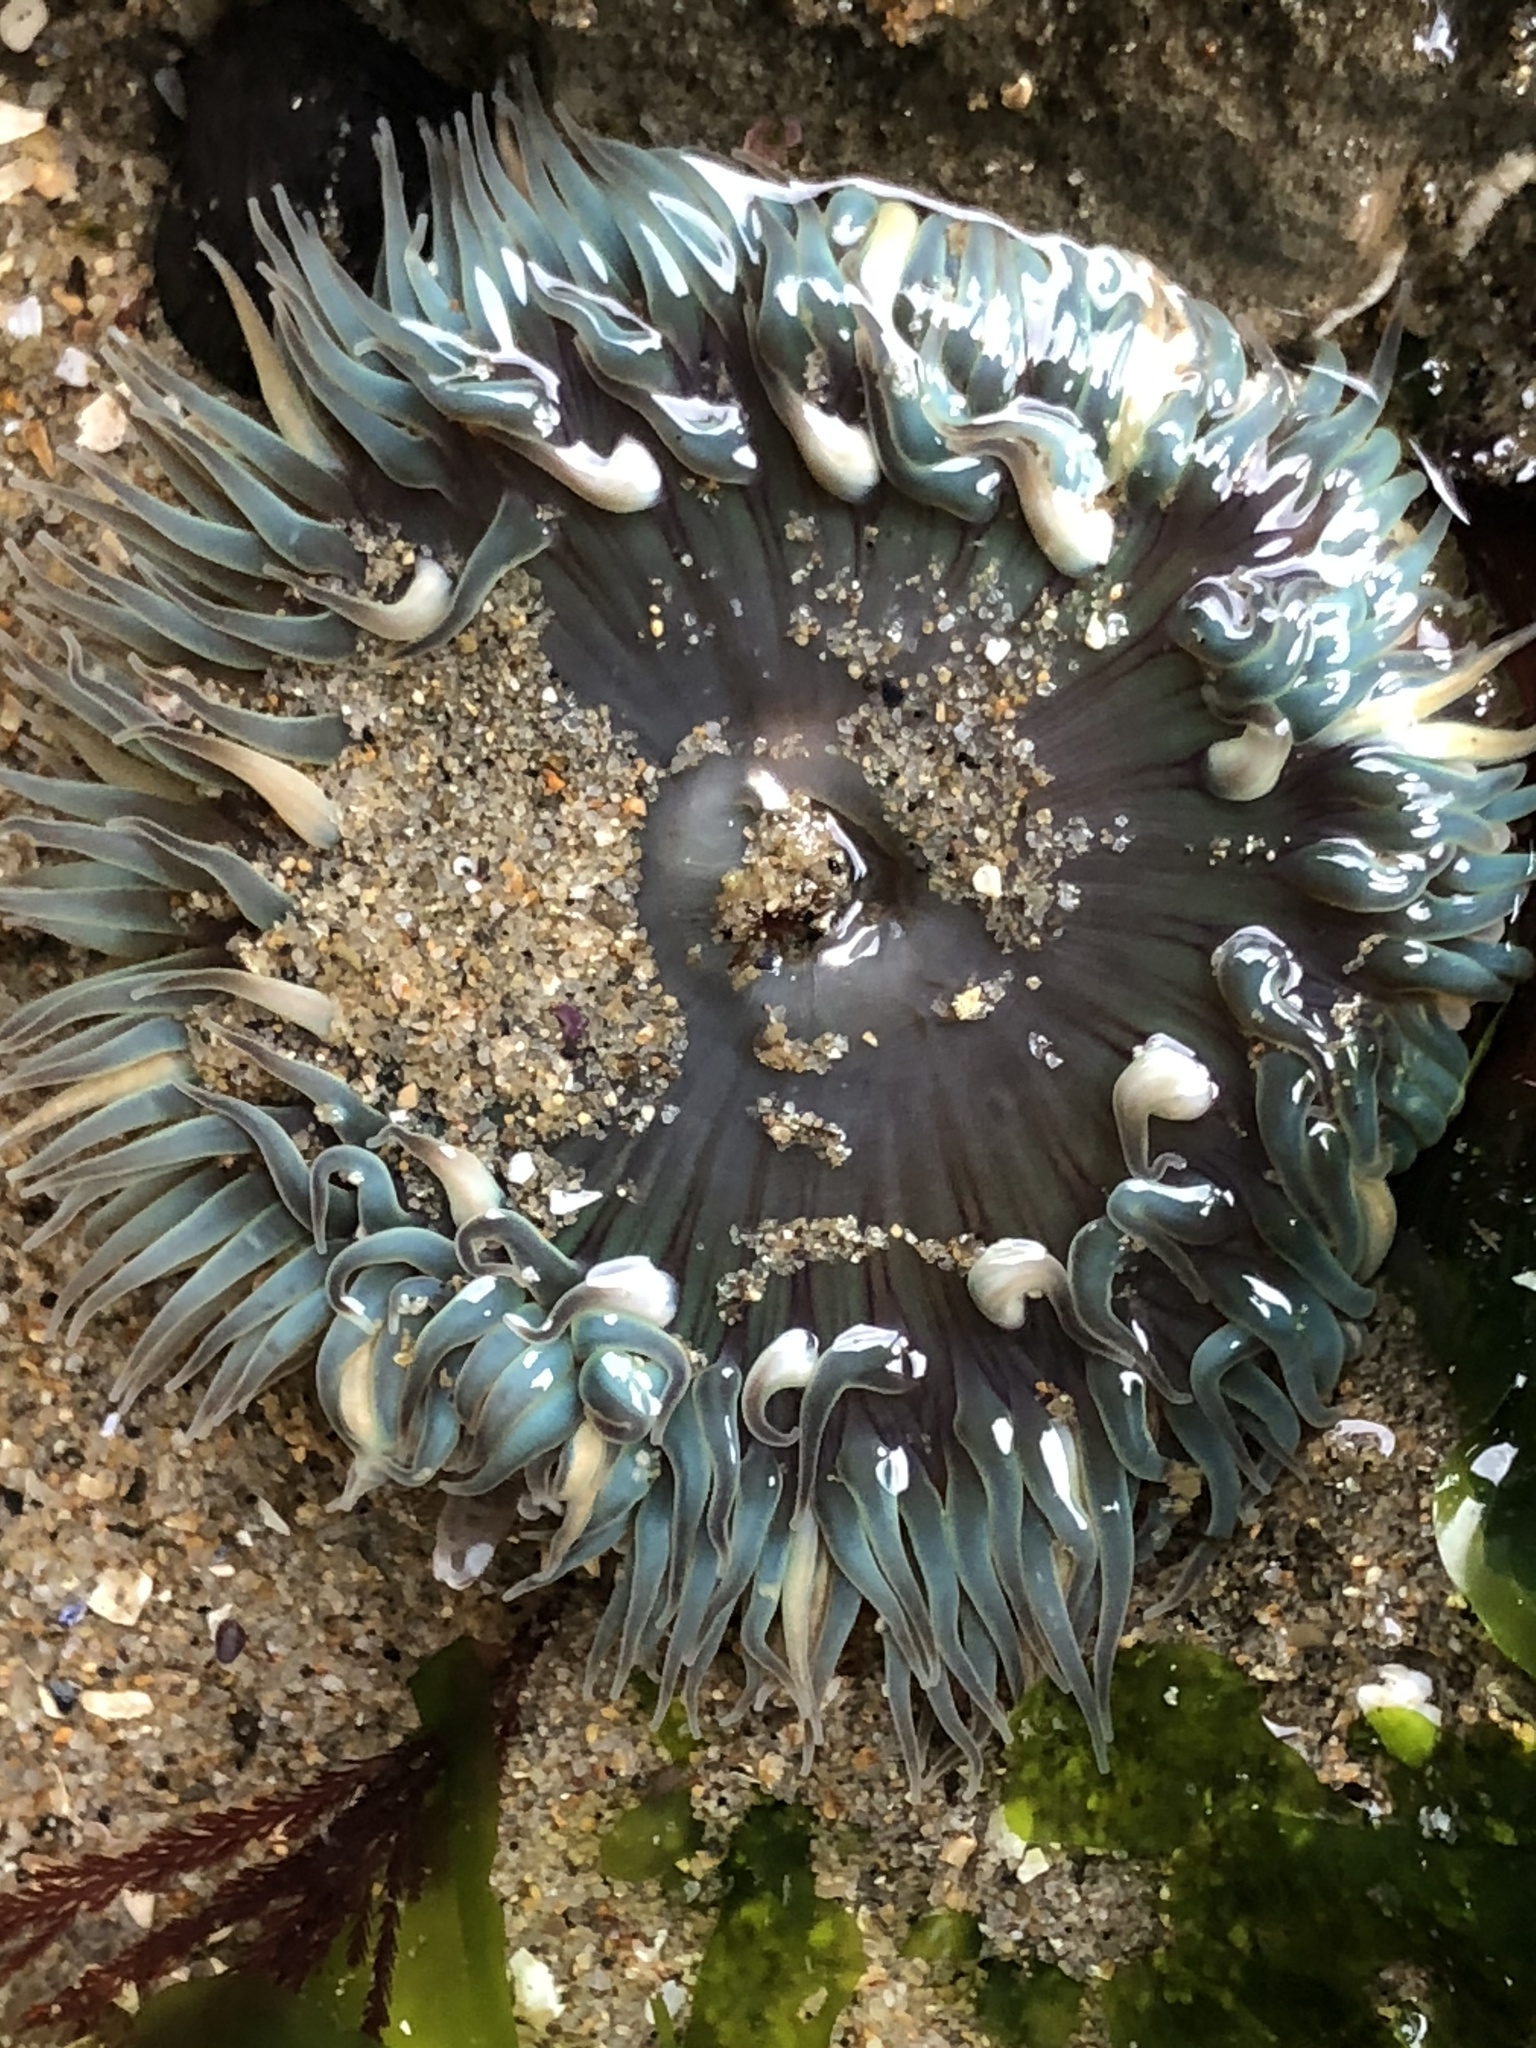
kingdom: Animalia
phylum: Cnidaria
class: Anthozoa
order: Actiniaria
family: Actiniidae
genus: Anthopleura
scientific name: Anthopleura sola
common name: Sun anemone
